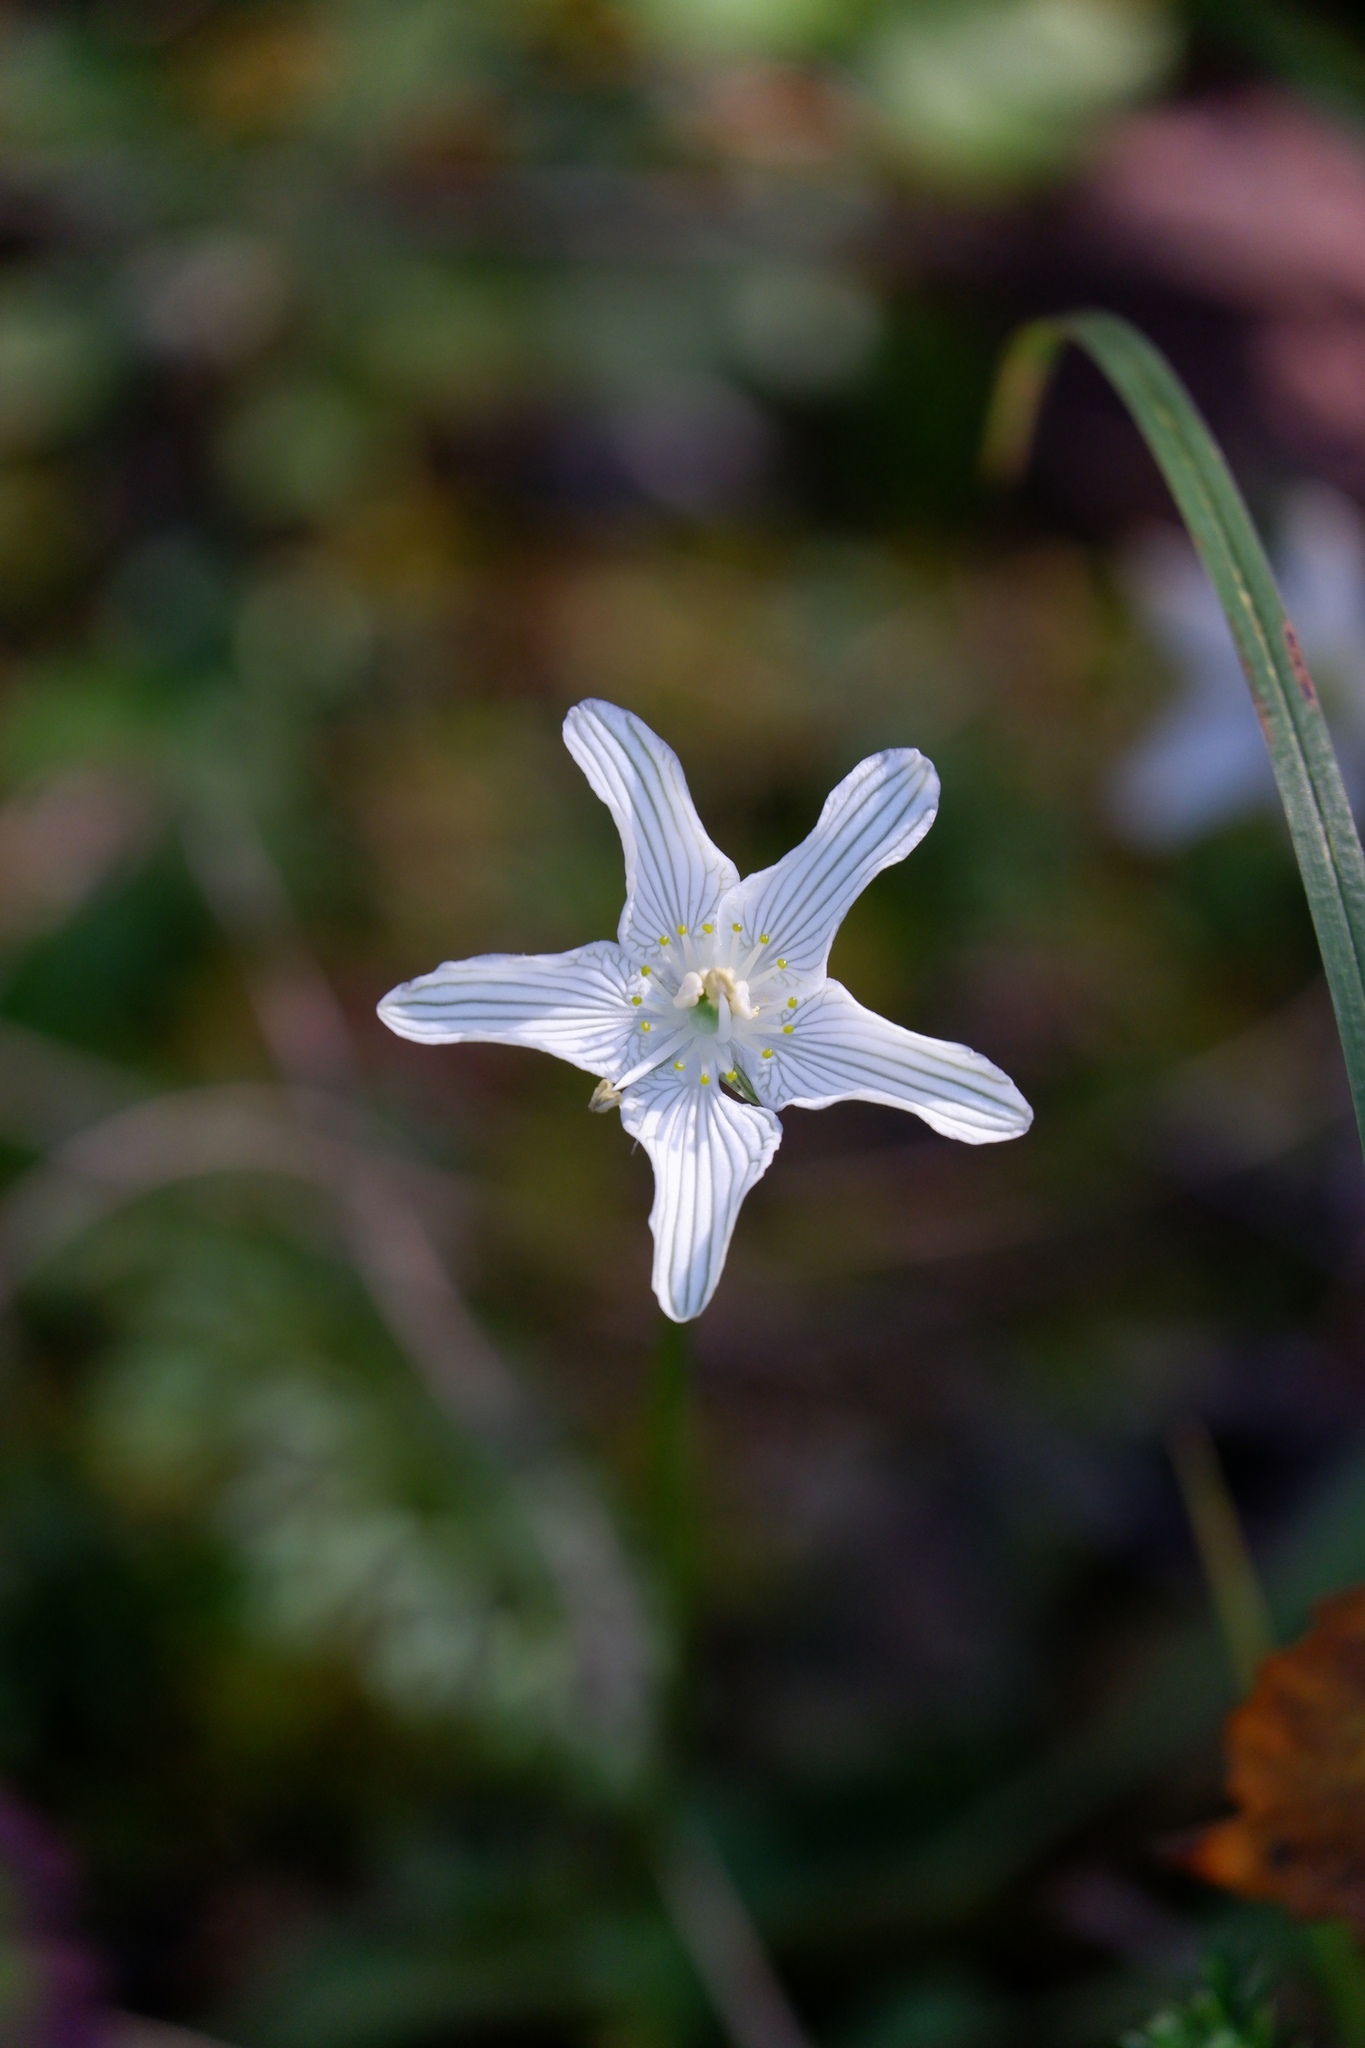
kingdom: Plantae
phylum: Tracheophyta
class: Magnoliopsida
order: Celastrales
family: Parnassiaceae
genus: Parnassia
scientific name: Parnassia glauca
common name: American grass-of-parnassus
